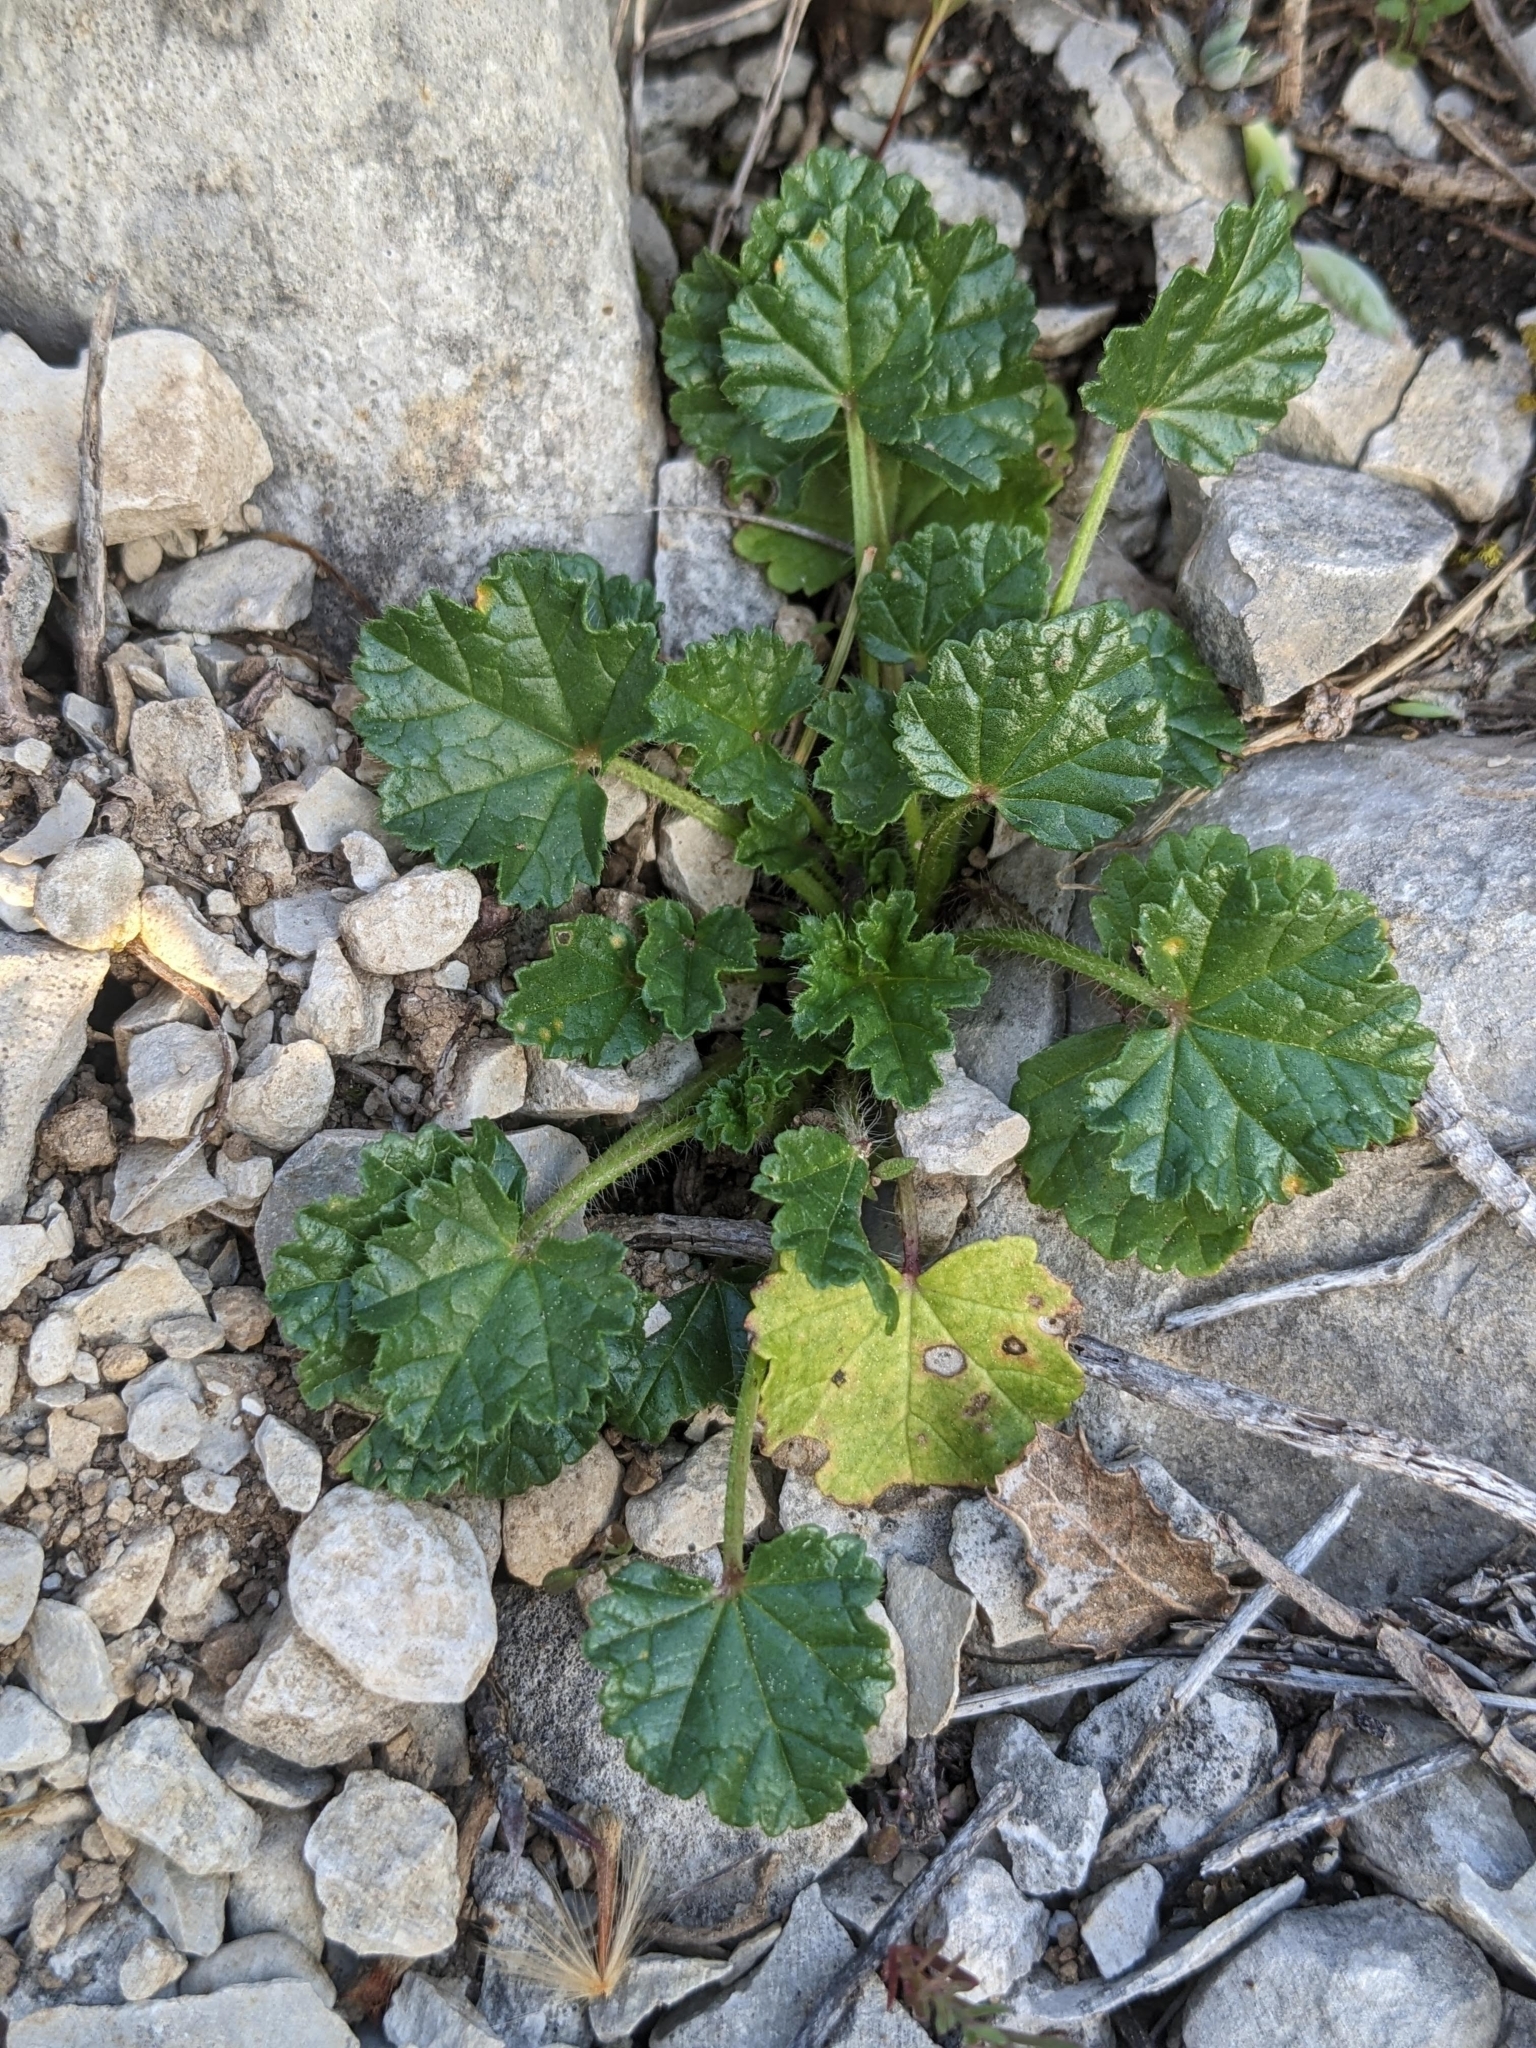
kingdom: Plantae
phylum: Tracheophyta
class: Magnoliopsida
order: Malvales
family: Malvaceae
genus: Althaea
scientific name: Althaea hirsuta
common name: Rough marsh-mallow
